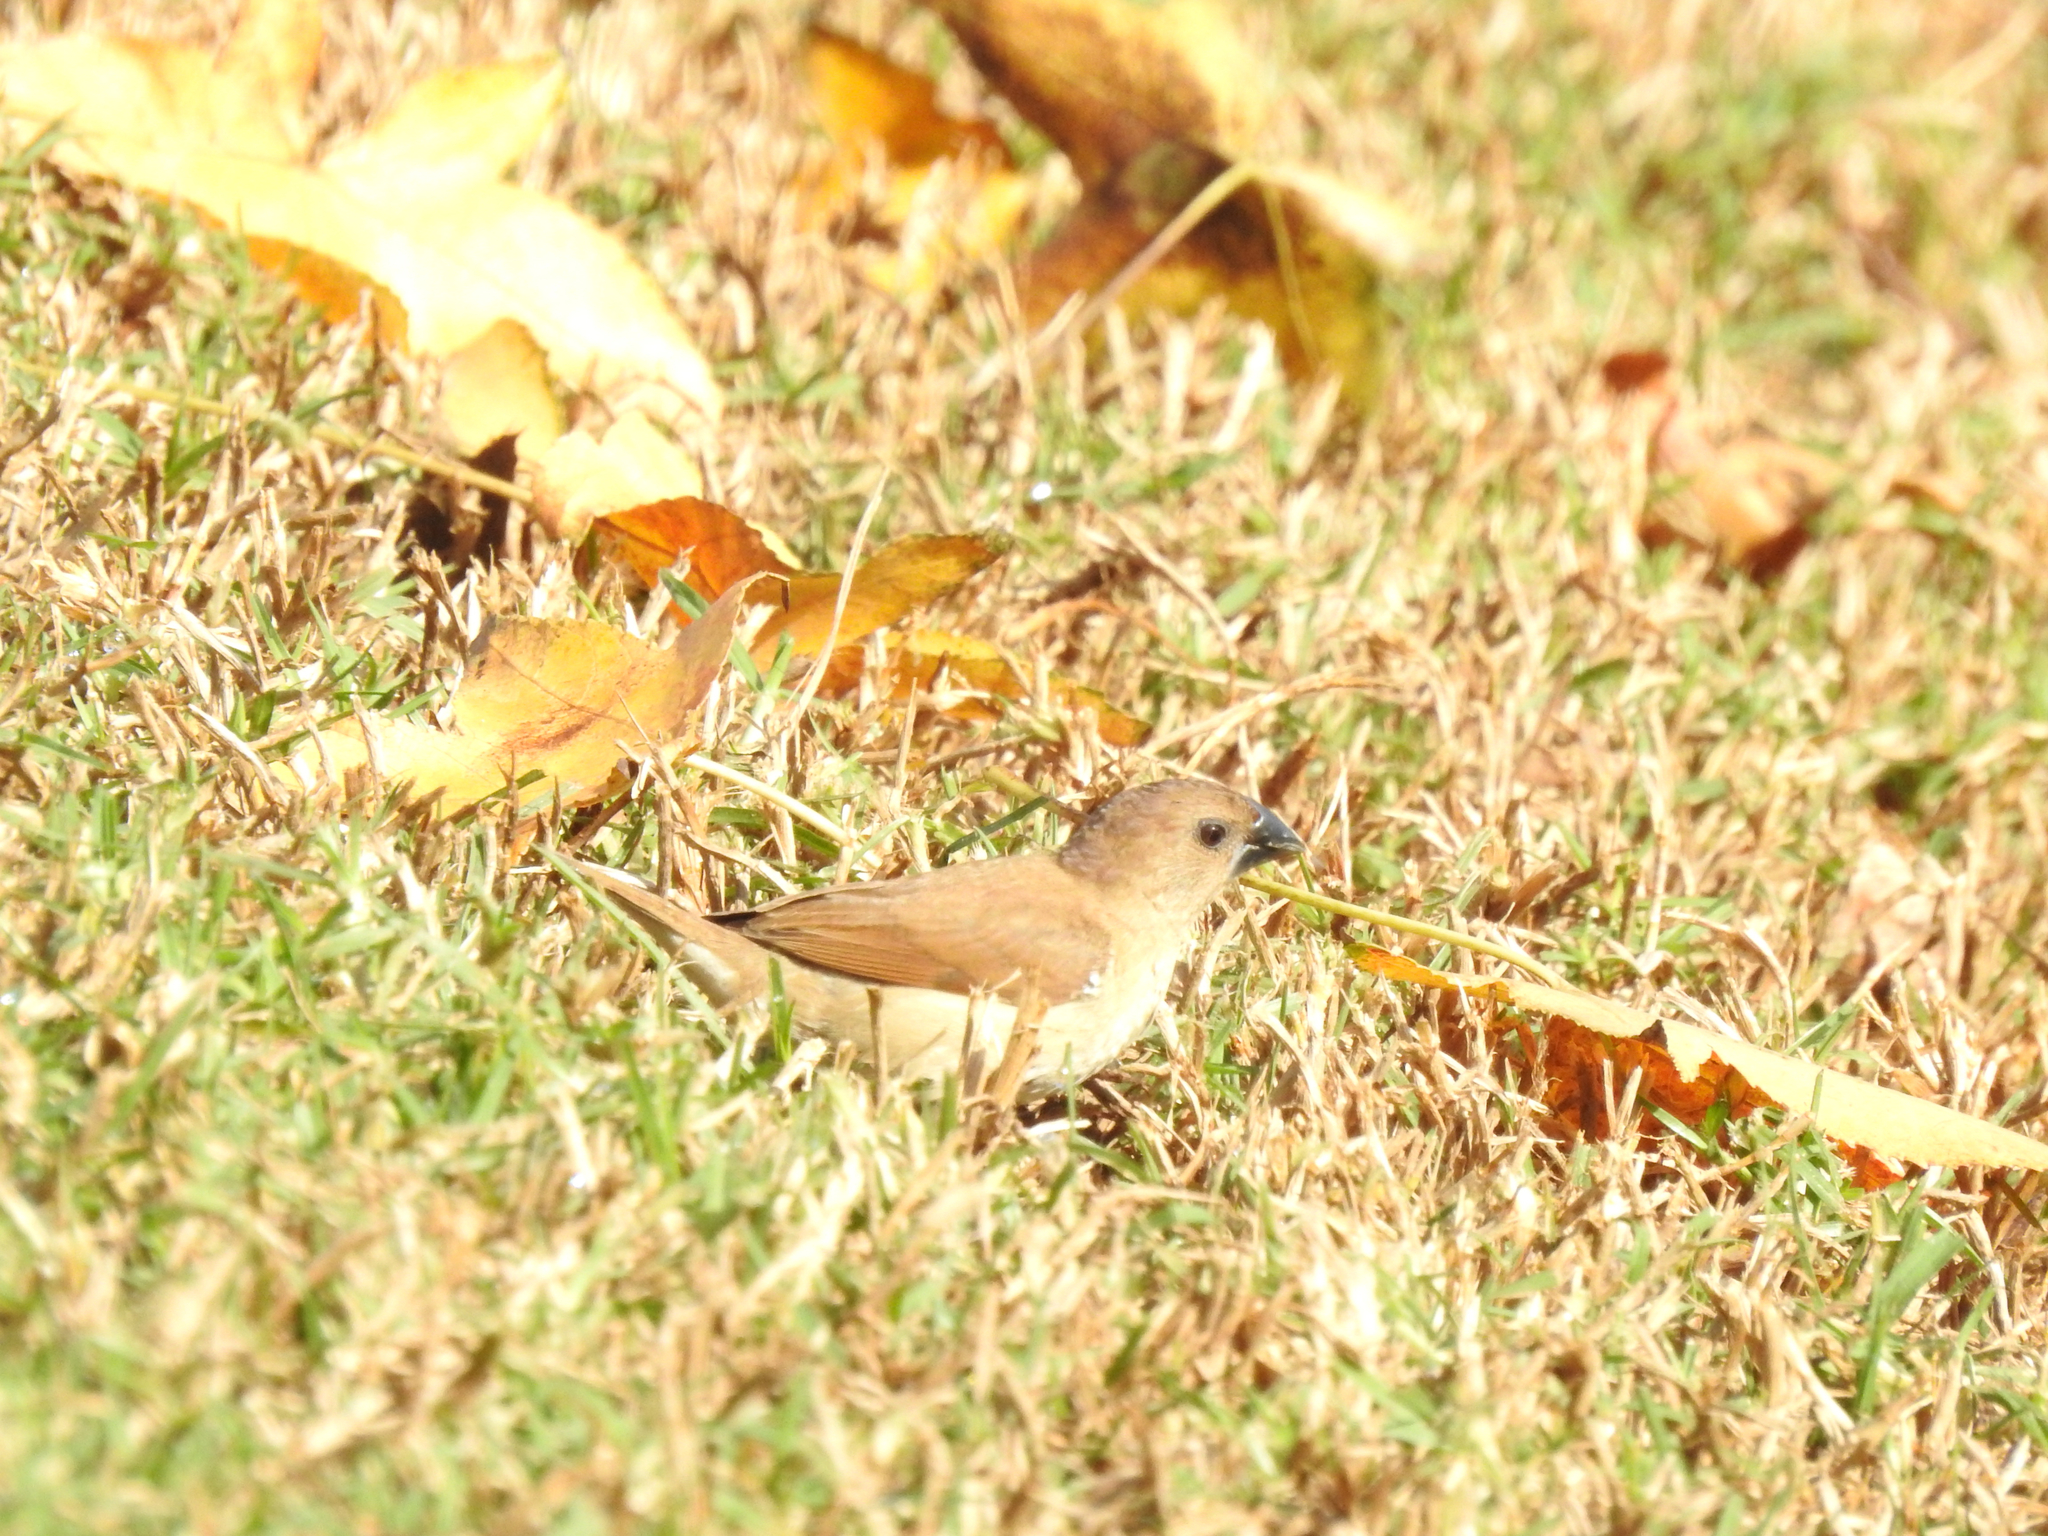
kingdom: Animalia
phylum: Chordata
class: Aves
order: Passeriformes
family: Estrildidae
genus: Lonchura
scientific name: Lonchura punctulata
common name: Scaly-breasted munia
